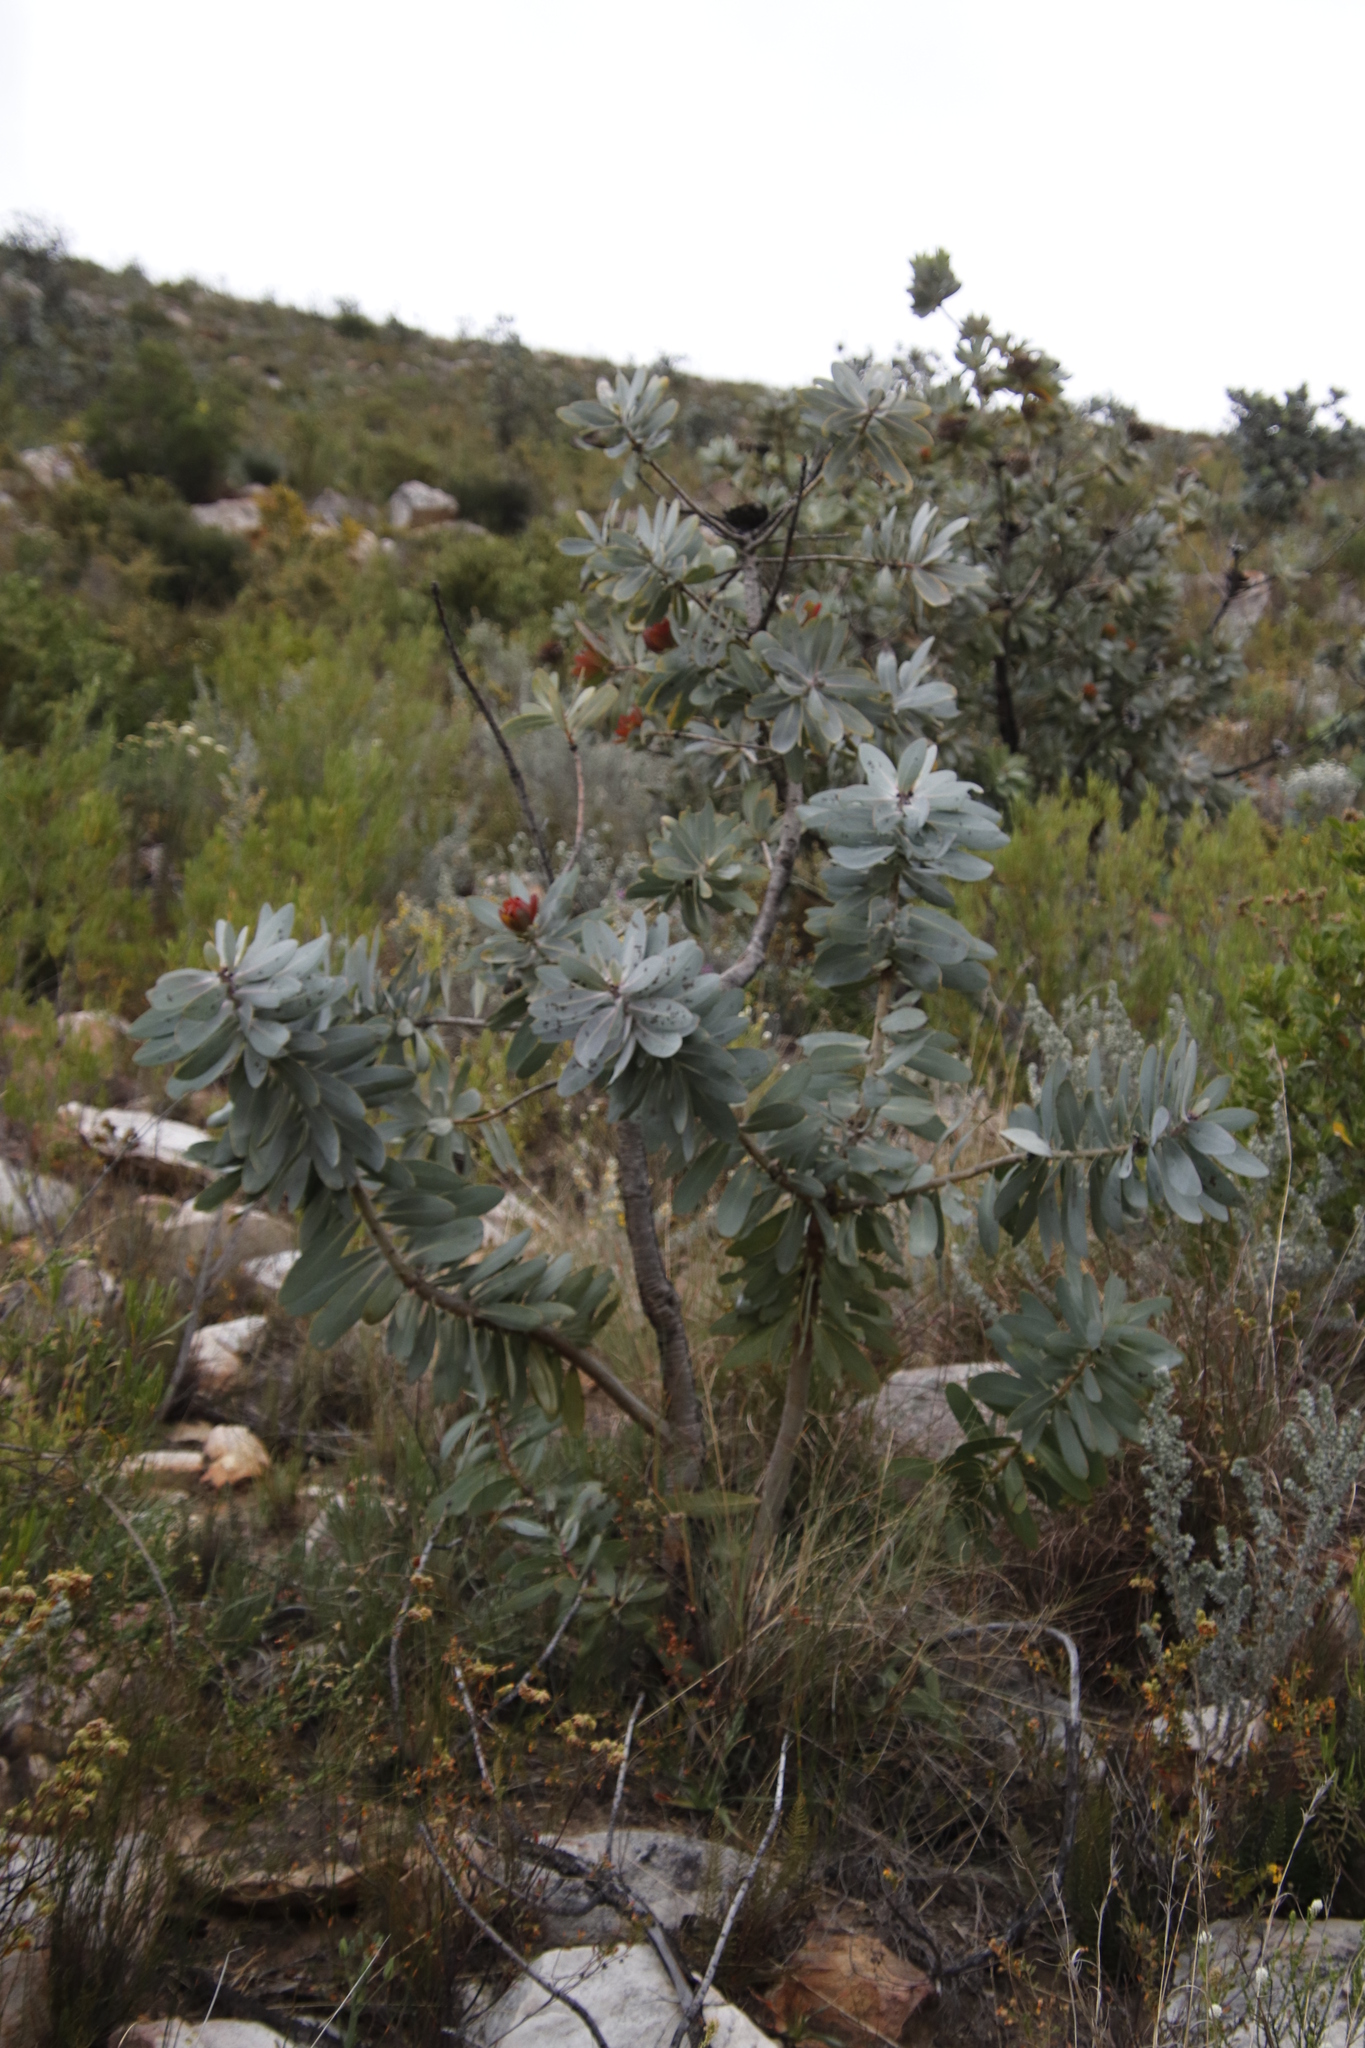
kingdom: Plantae
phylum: Tracheophyta
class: Magnoliopsida
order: Proteales
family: Proteaceae
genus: Protea
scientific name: Protea nitida
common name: Tree protea
